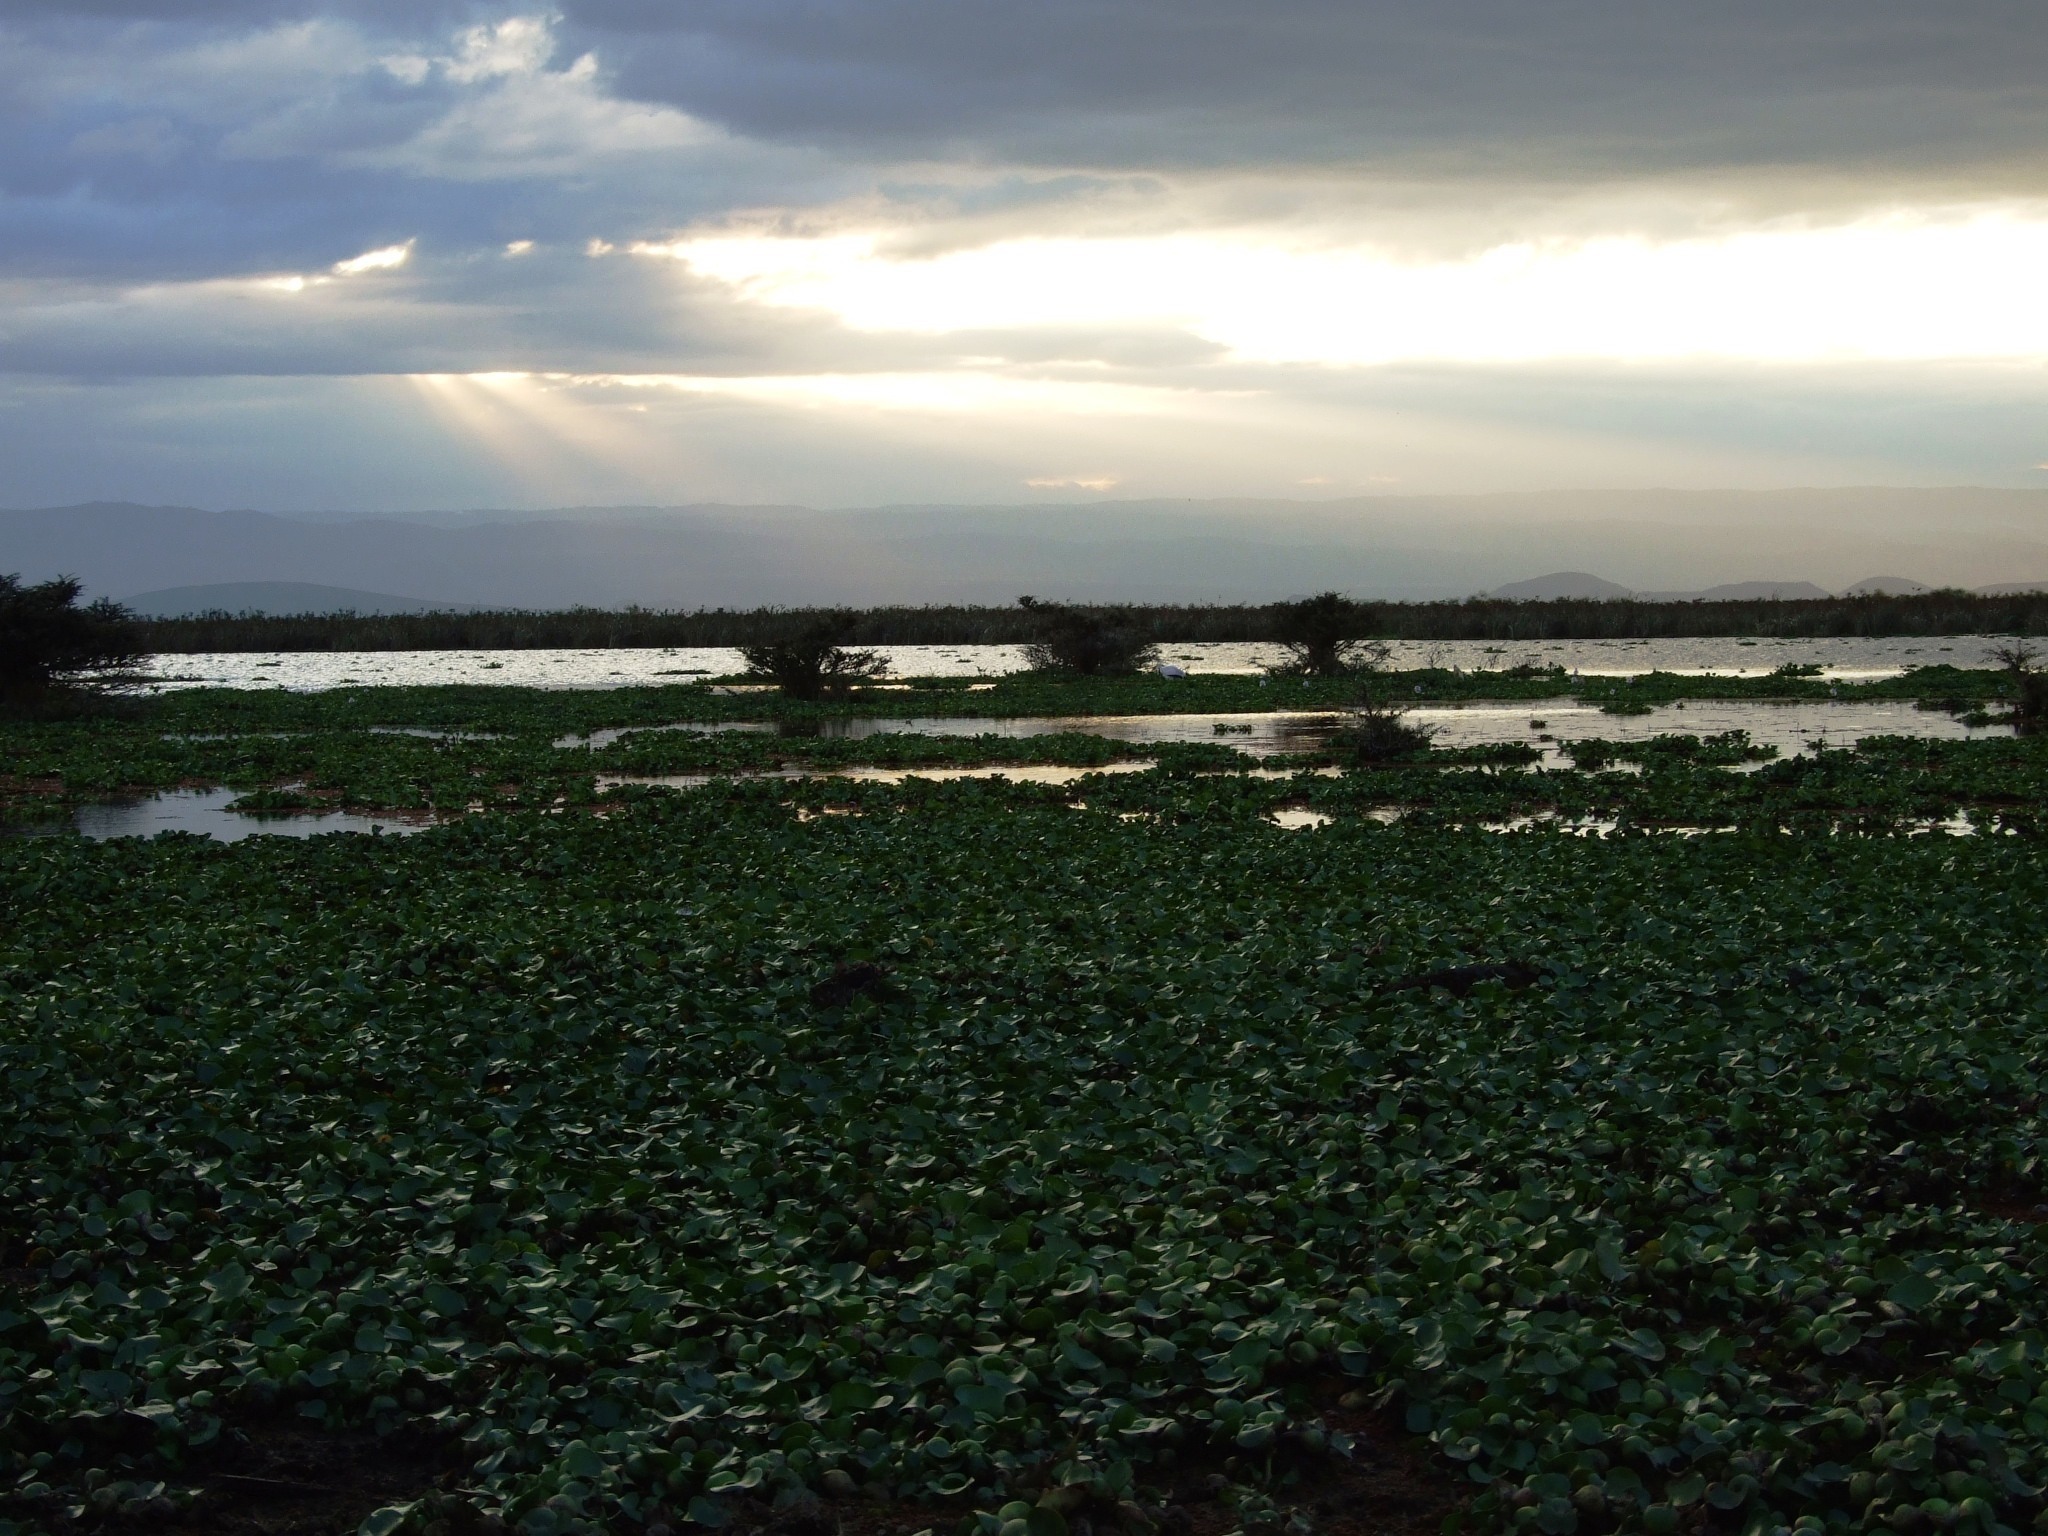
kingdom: Plantae
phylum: Tracheophyta
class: Liliopsida
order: Commelinales
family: Pontederiaceae
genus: Pontederia
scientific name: Pontederia crassipes
